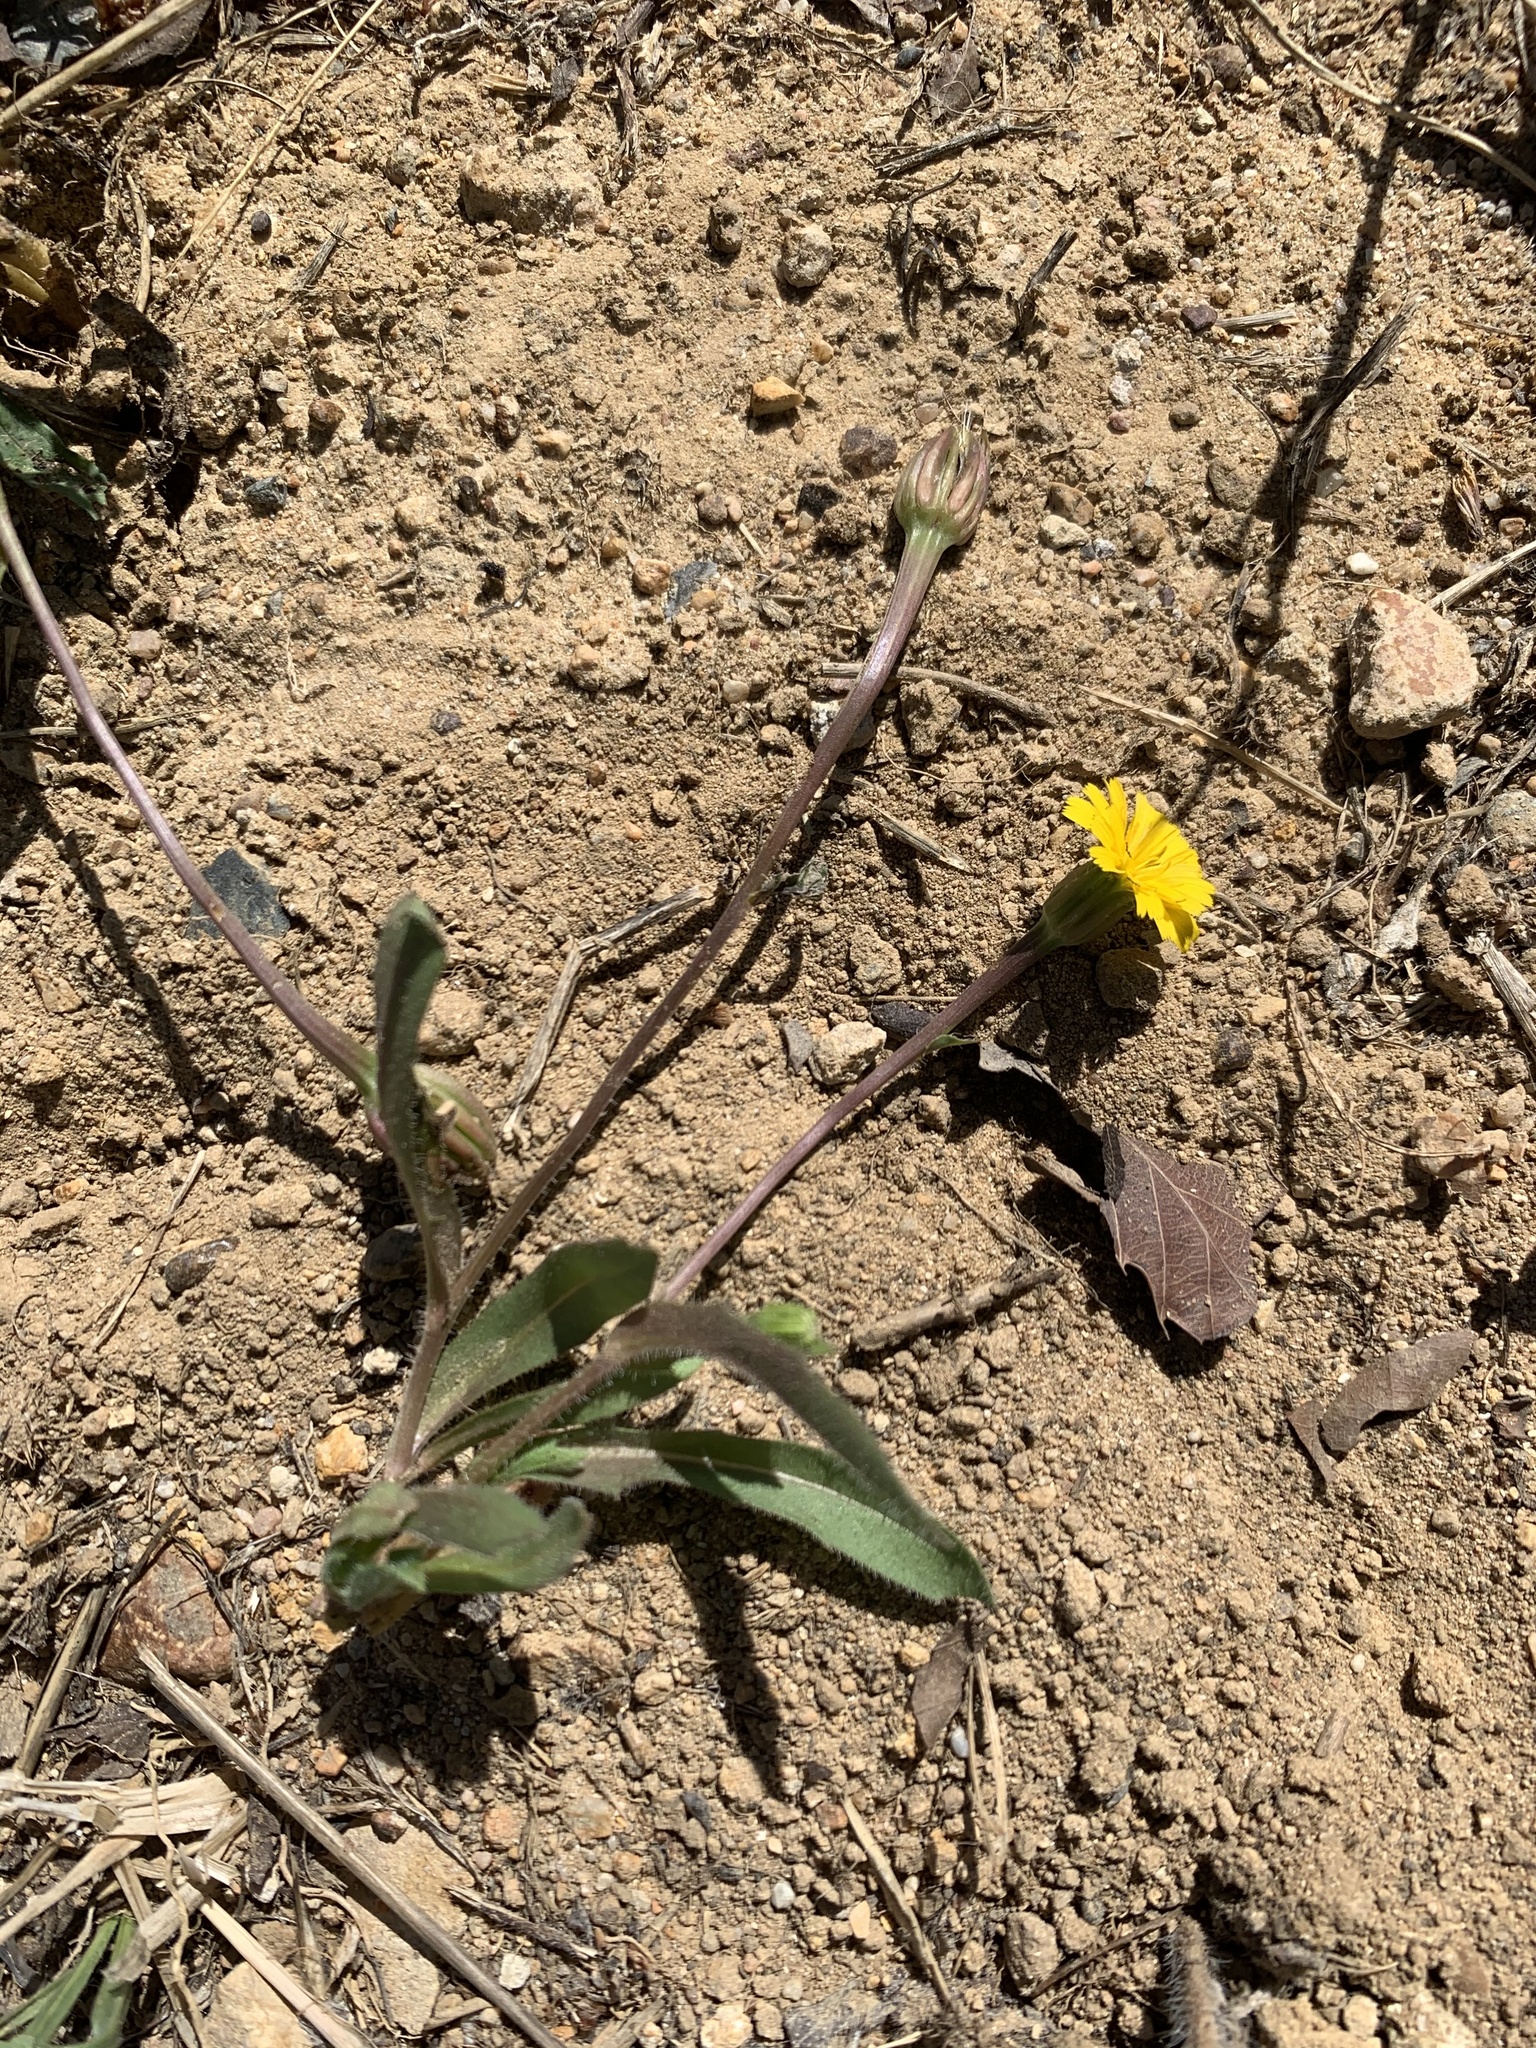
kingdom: Plantae
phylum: Tracheophyta
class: Magnoliopsida
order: Asterales
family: Asteraceae
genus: Hedypnois
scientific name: Hedypnois rhagadioloides
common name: Cretan weed
